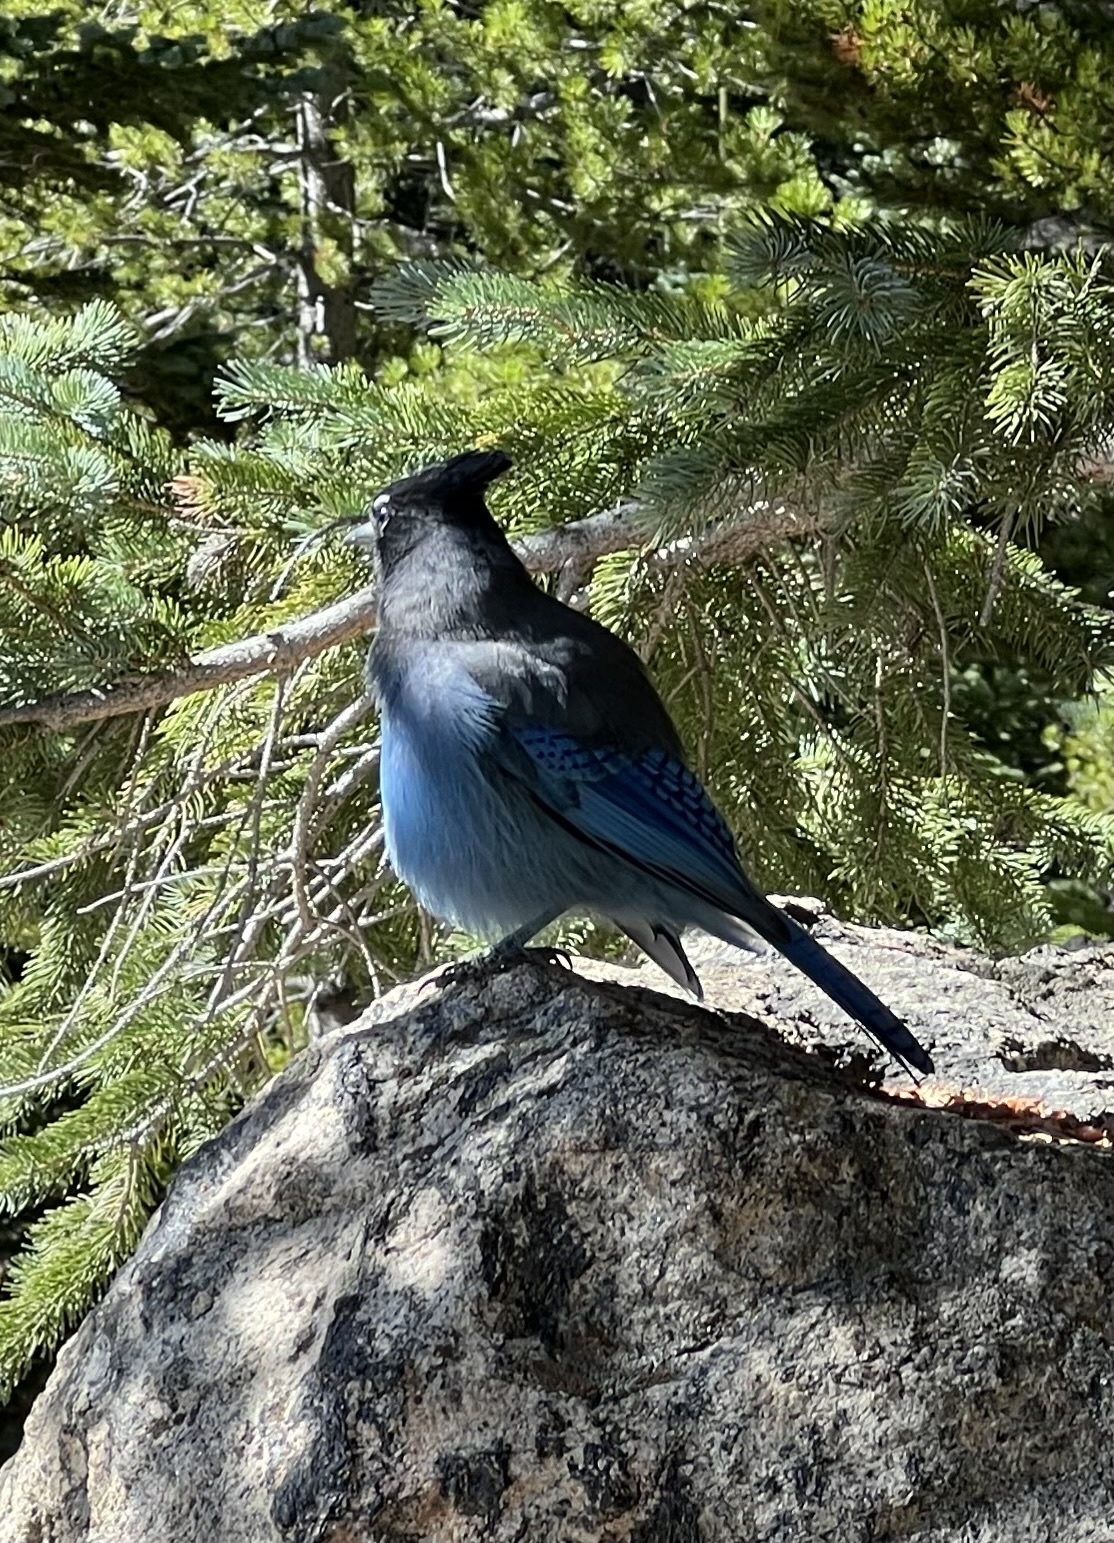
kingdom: Animalia
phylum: Chordata
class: Aves
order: Passeriformes
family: Corvidae
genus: Cyanocitta
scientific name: Cyanocitta stelleri
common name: Steller's jay
